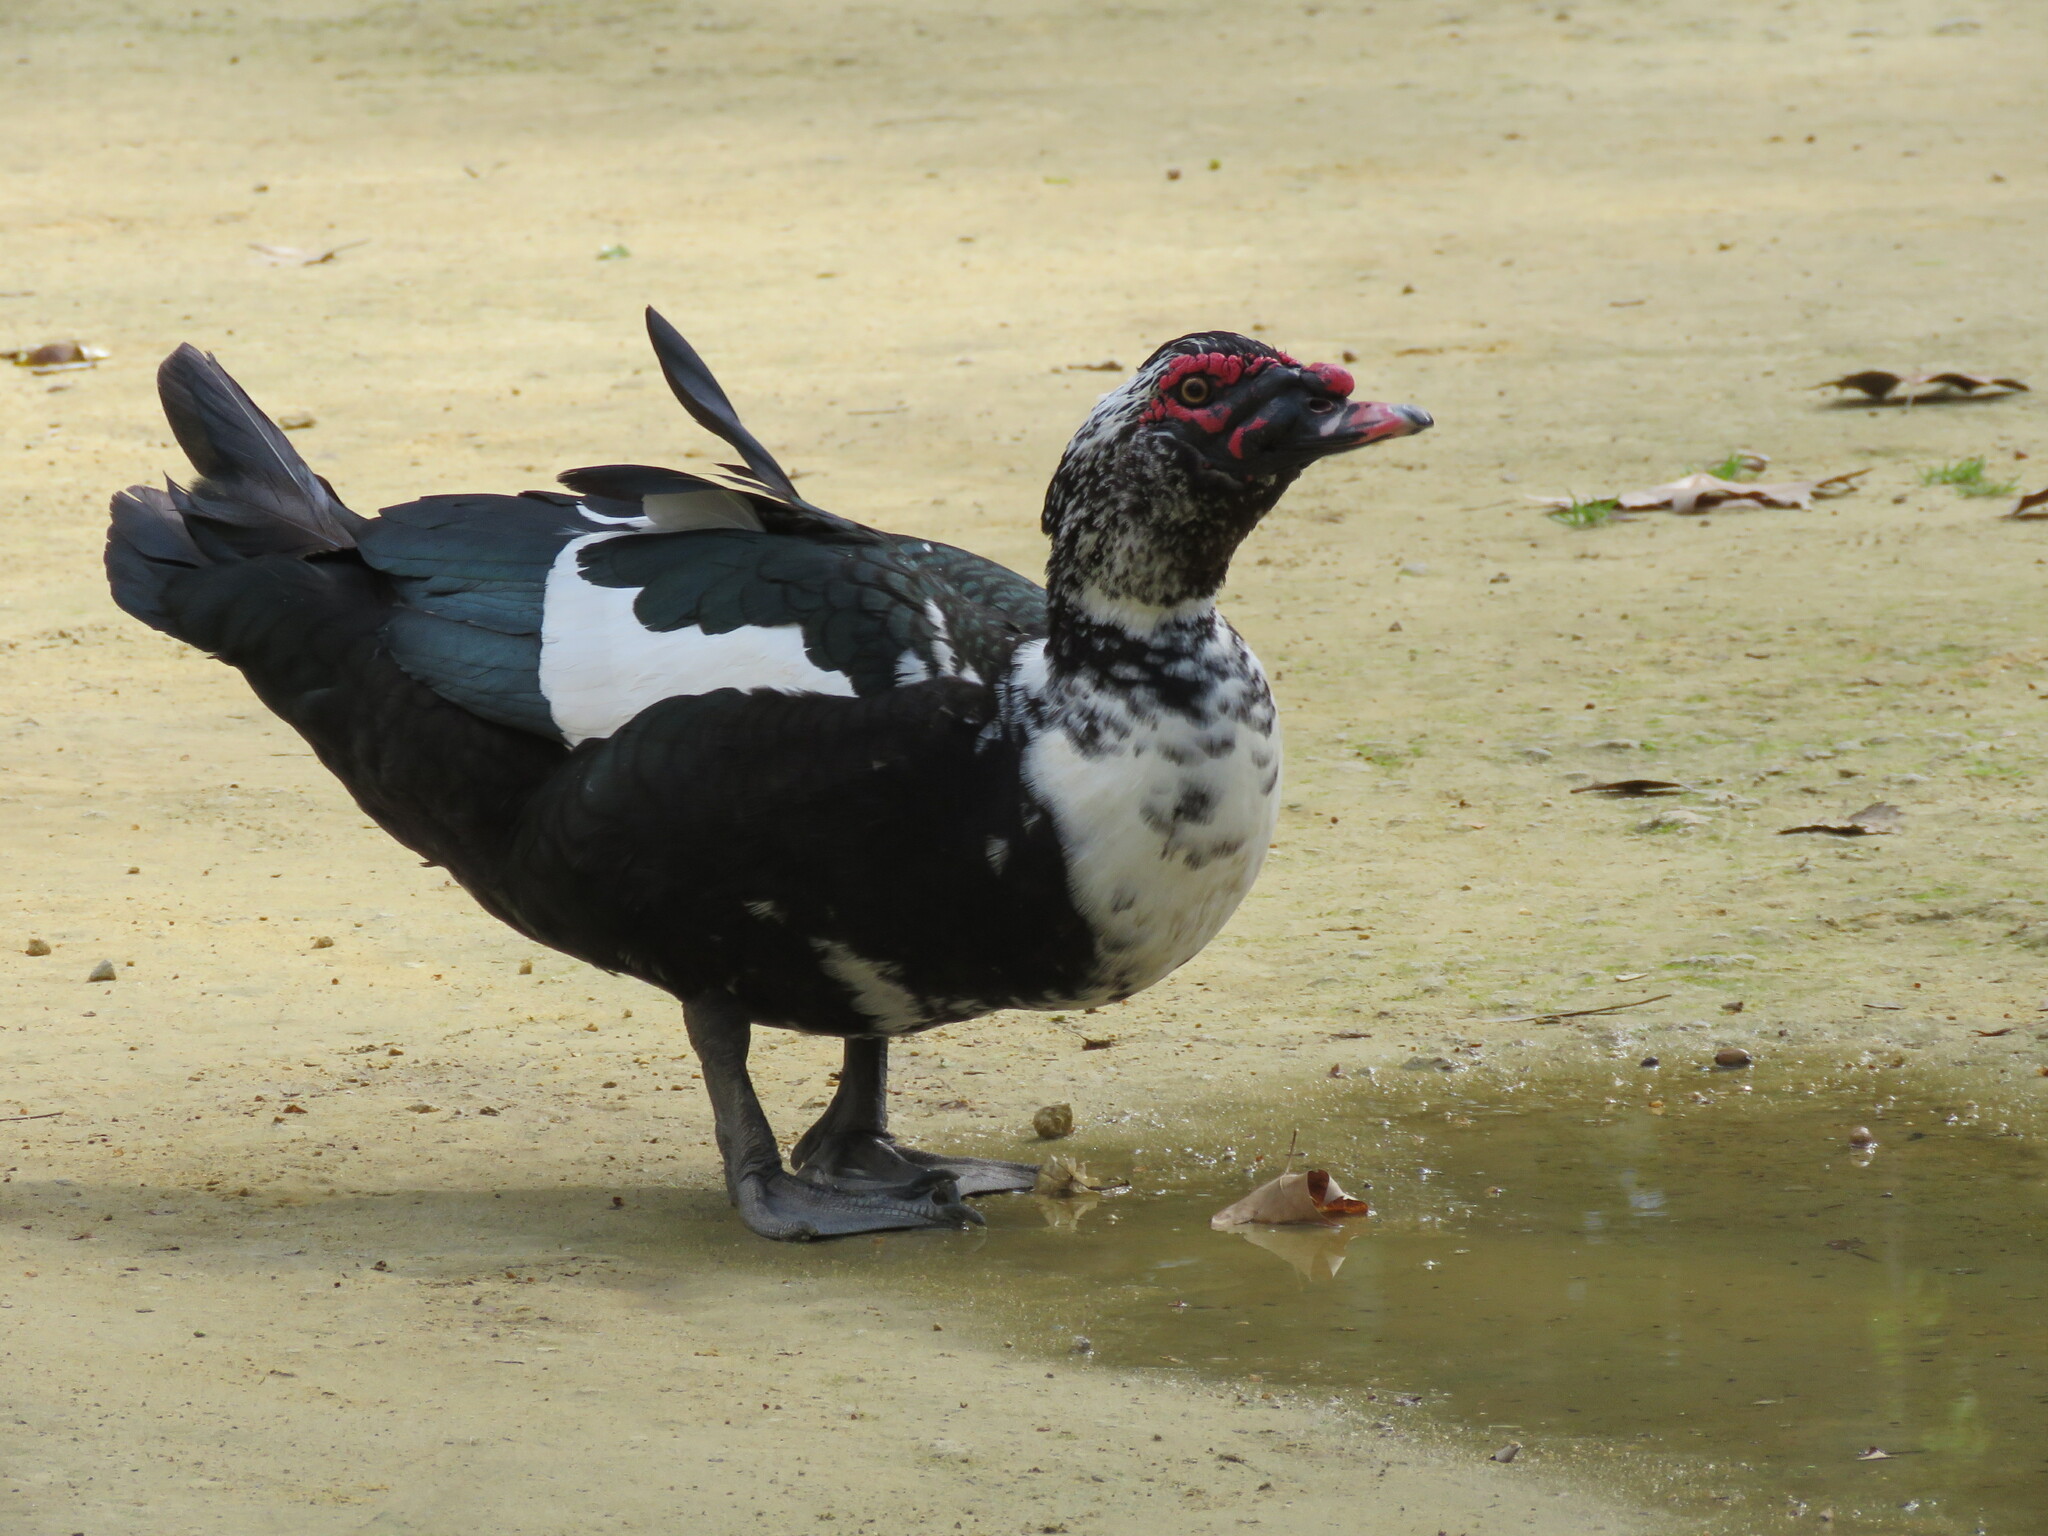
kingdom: Animalia
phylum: Chordata
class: Aves
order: Anseriformes
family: Anatidae
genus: Cairina
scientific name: Cairina moschata
